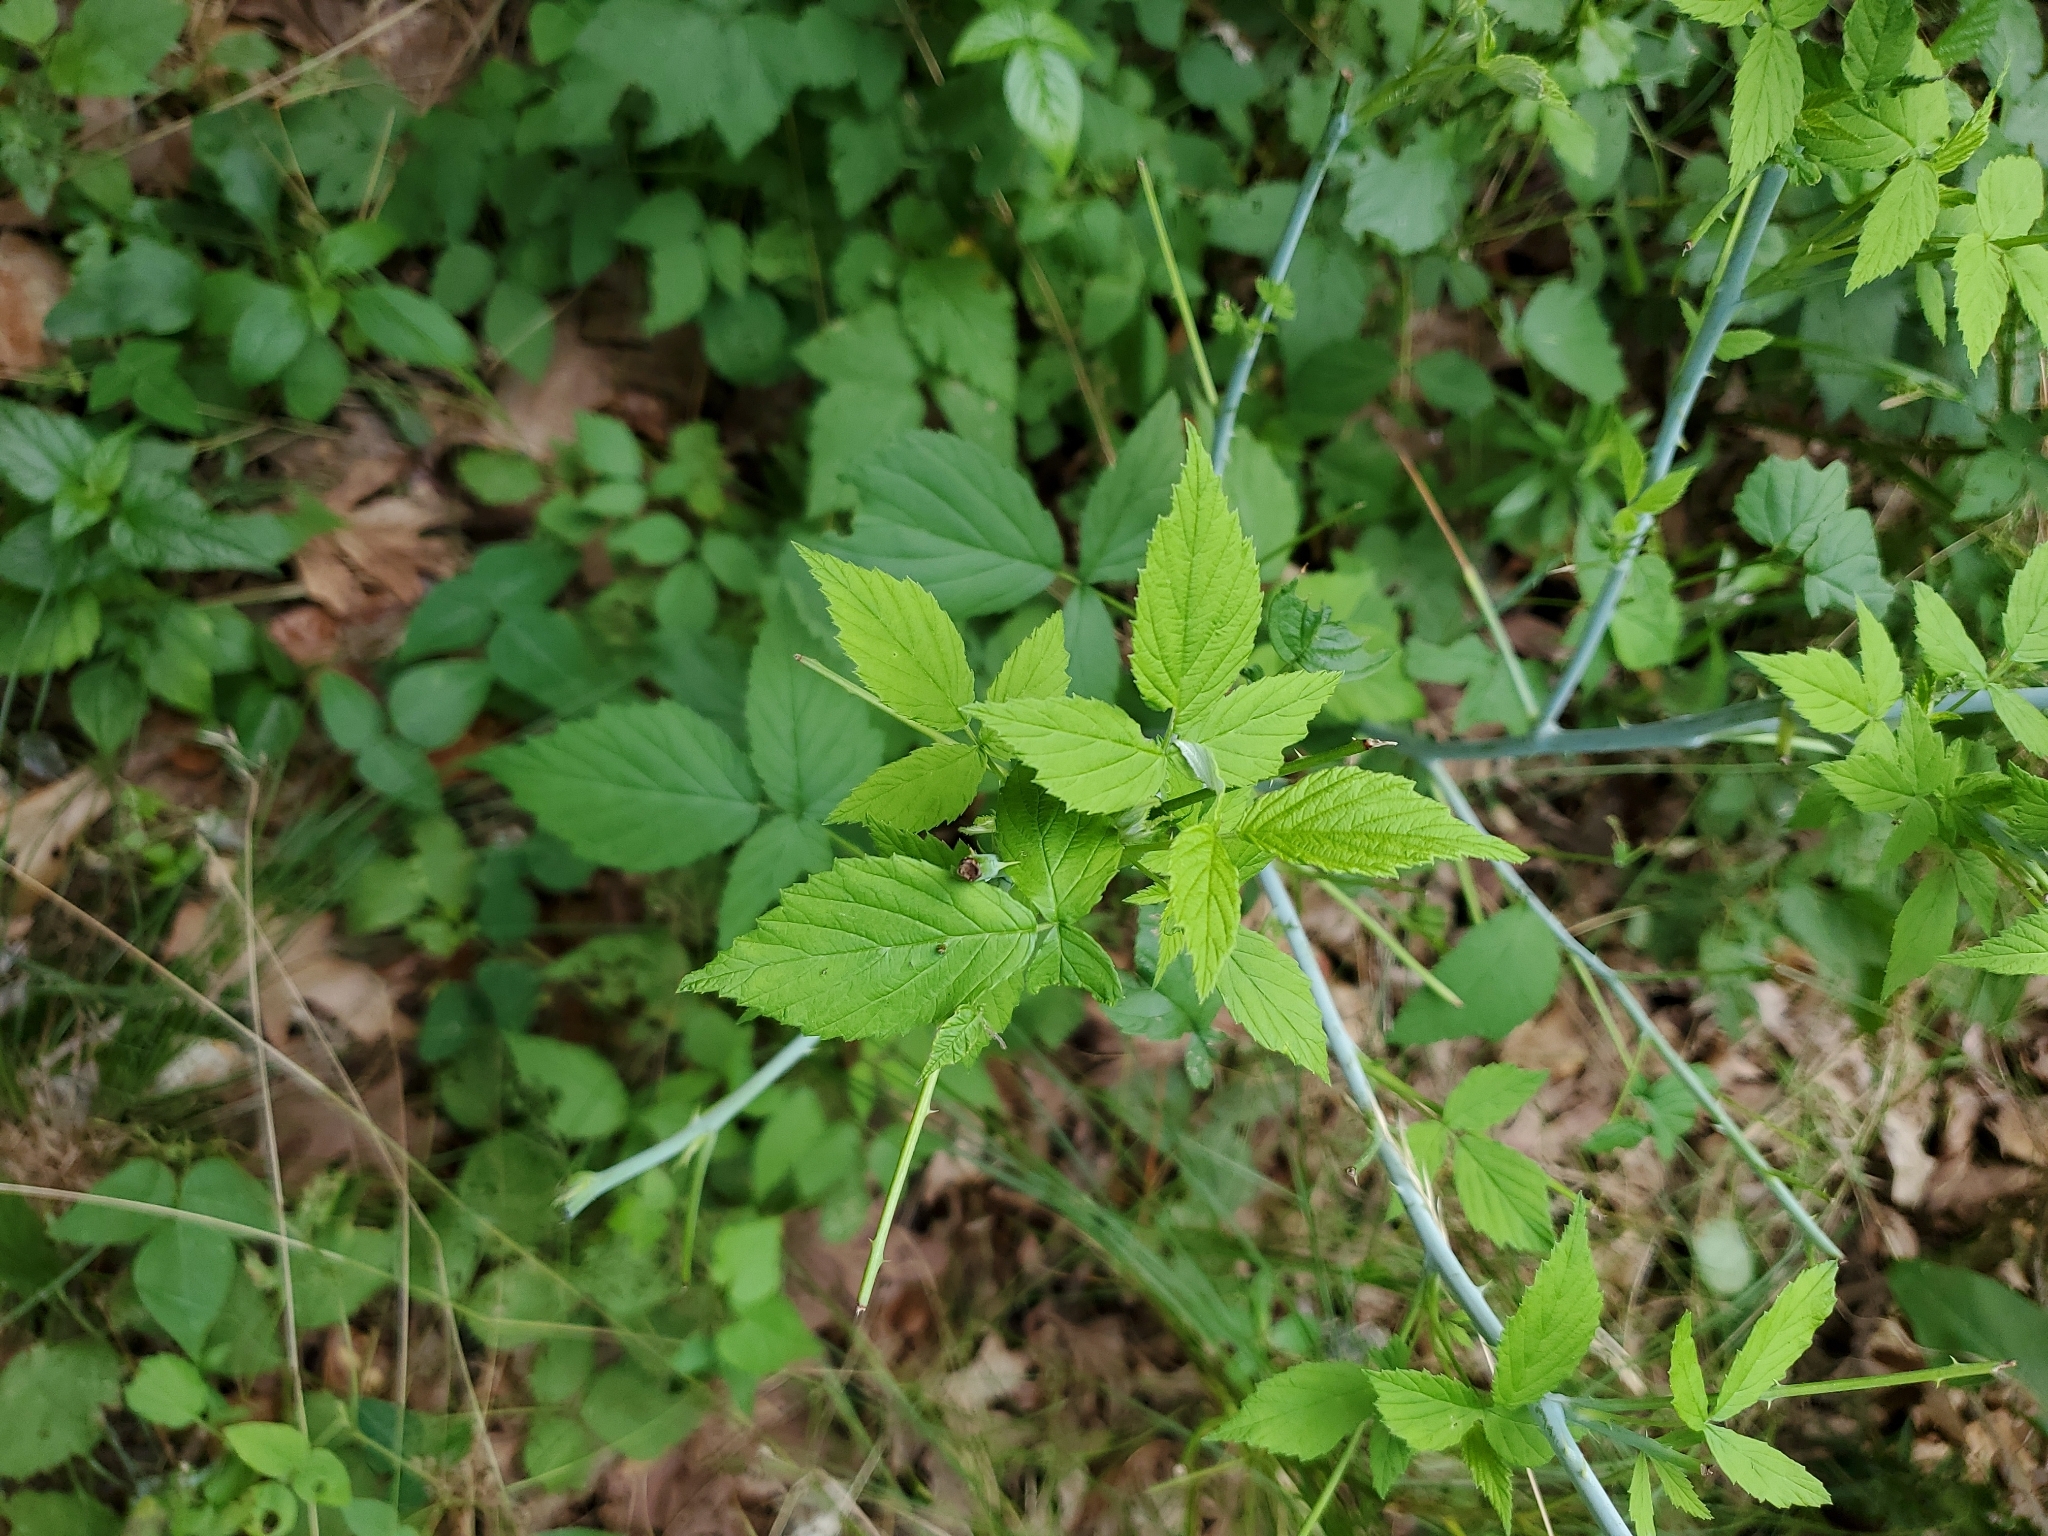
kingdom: Plantae
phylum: Tracheophyta
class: Magnoliopsida
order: Rosales
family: Rosaceae
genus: Rubus
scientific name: Rubus occidentalis
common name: Black raspberry
